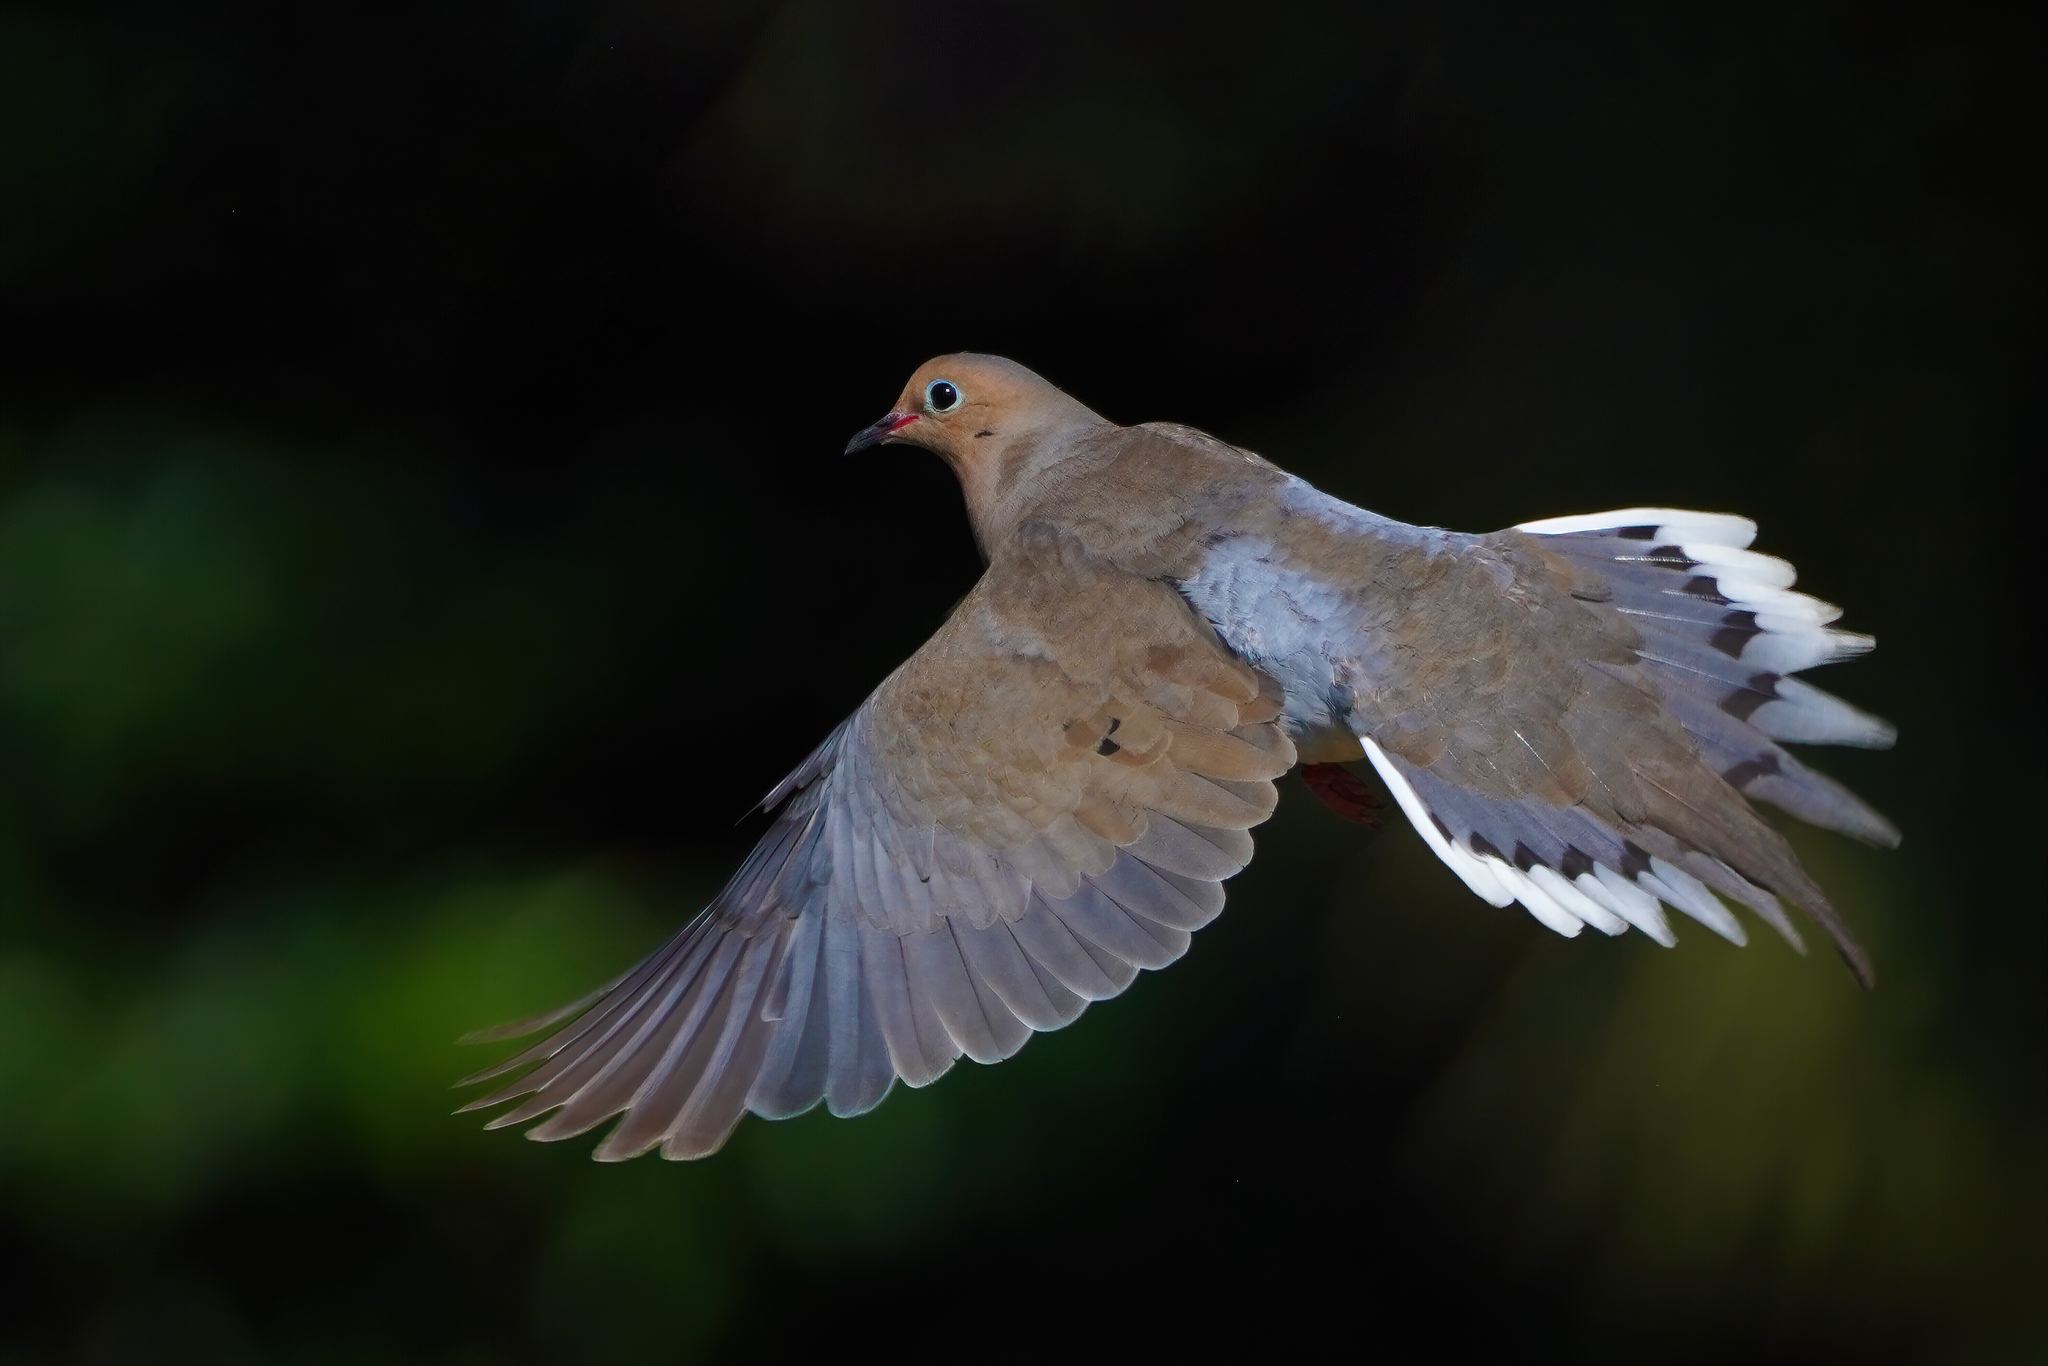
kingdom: Animalia
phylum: Chordata
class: Aves
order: Columbiformes
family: Columbidae
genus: Zenaida
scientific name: Zenaida macroura
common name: Mourning dove
